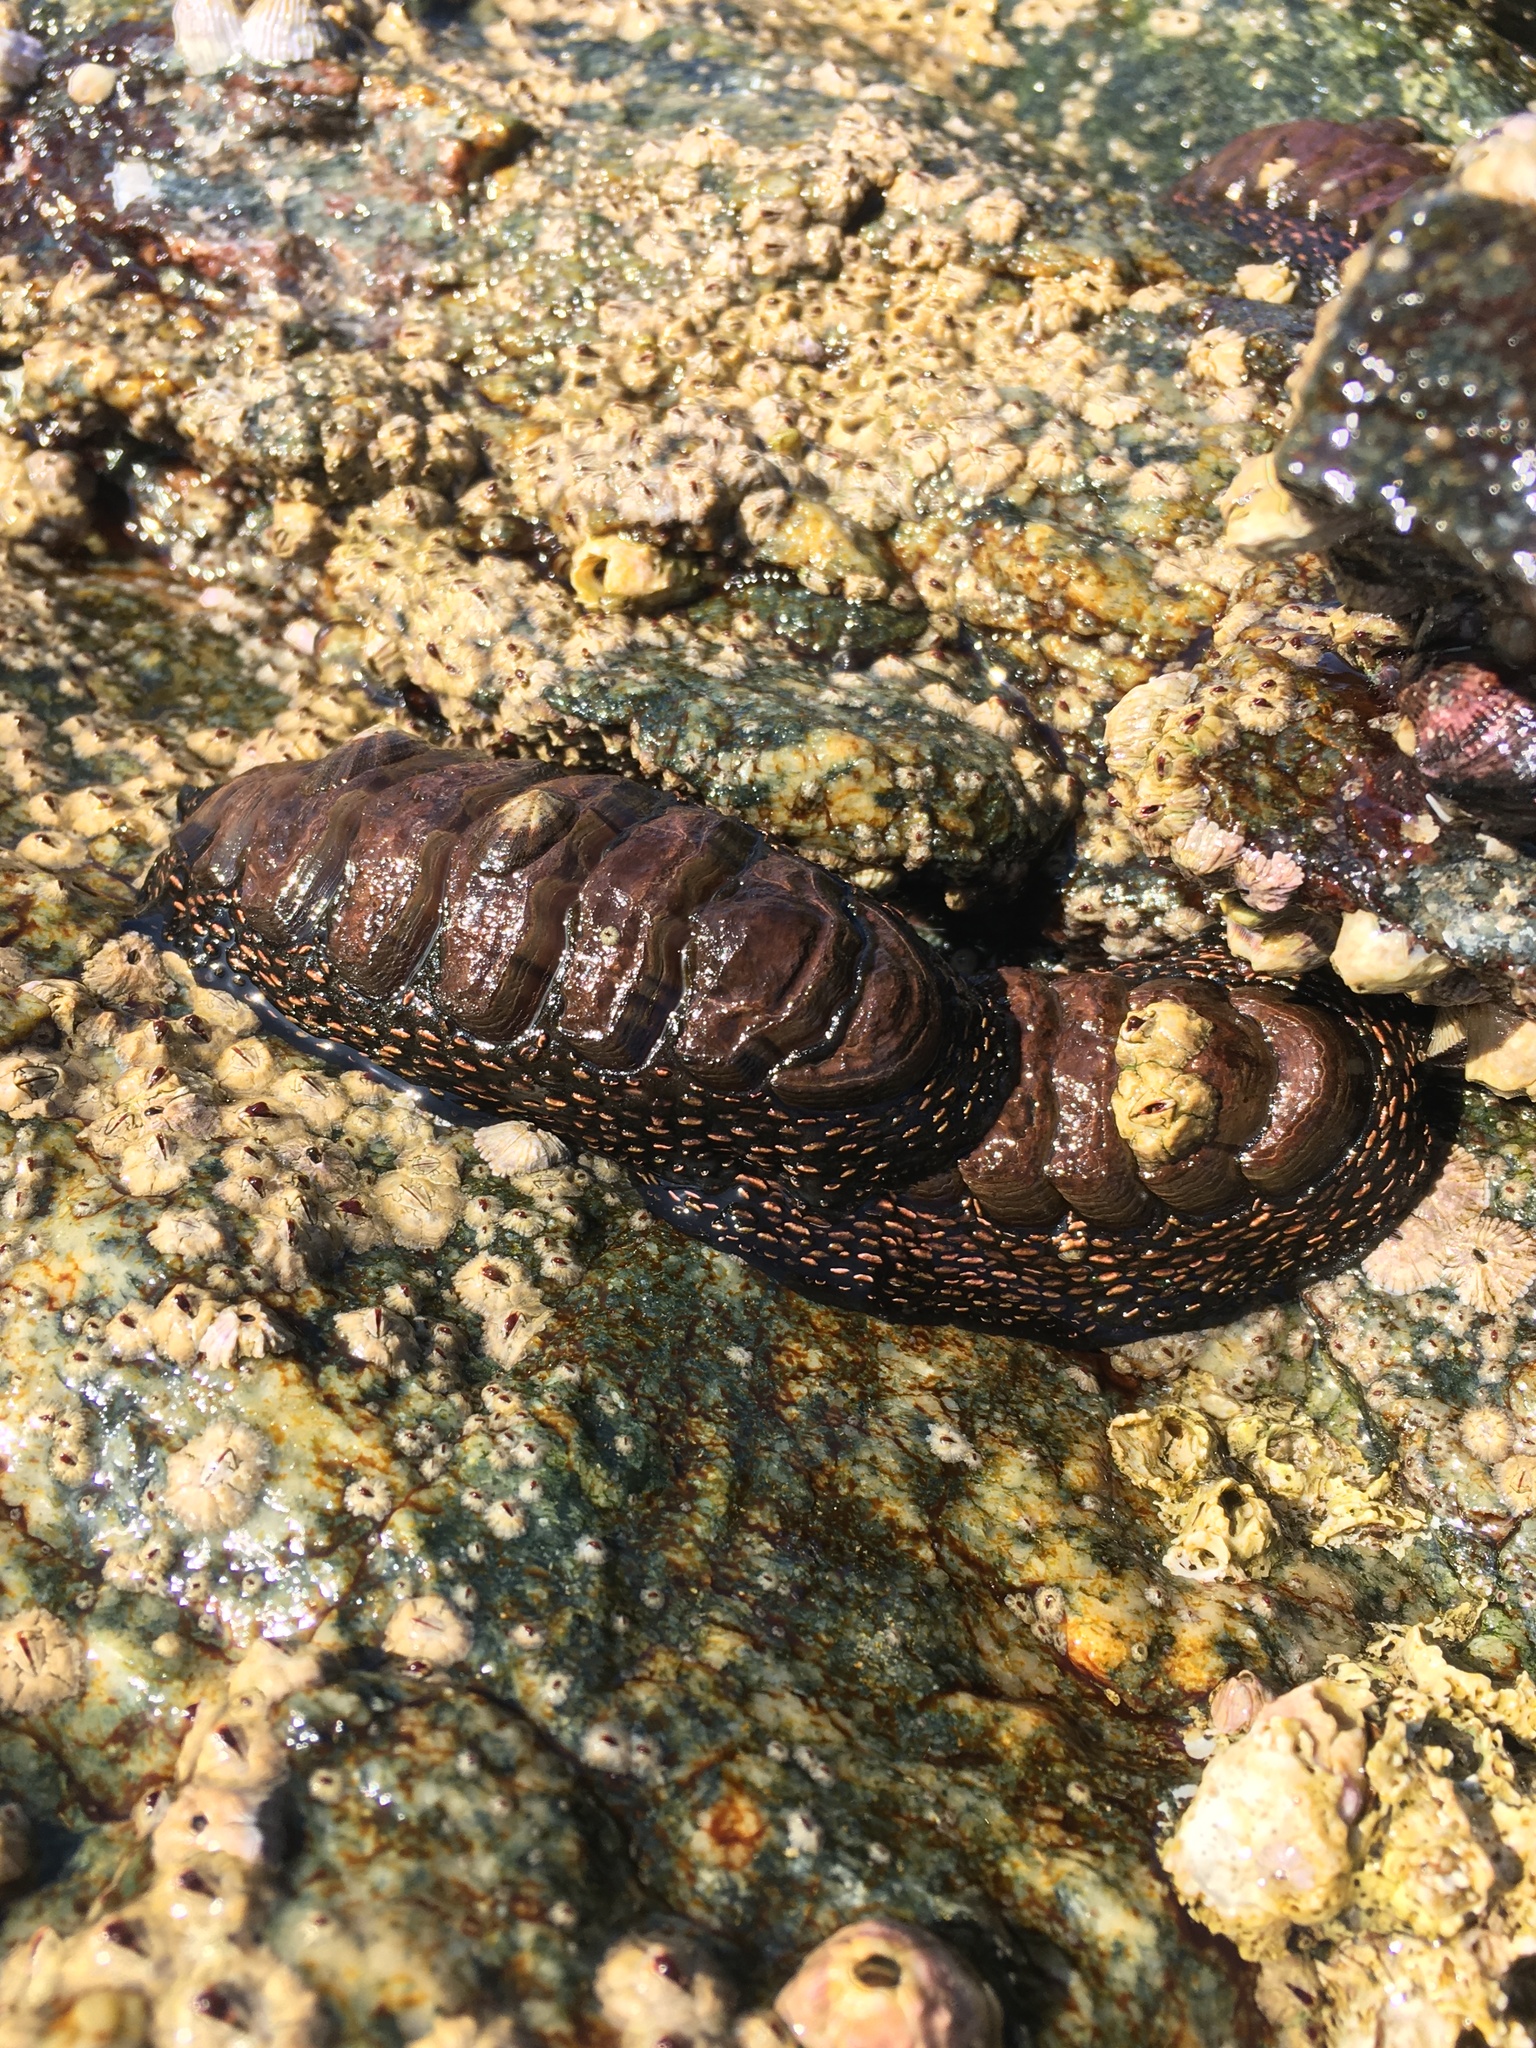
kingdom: Animalia
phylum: Mollusca
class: Polyplacophora
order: Chitonida
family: Chitonidae
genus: Enoplochiton
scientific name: Enoplochiton niger
